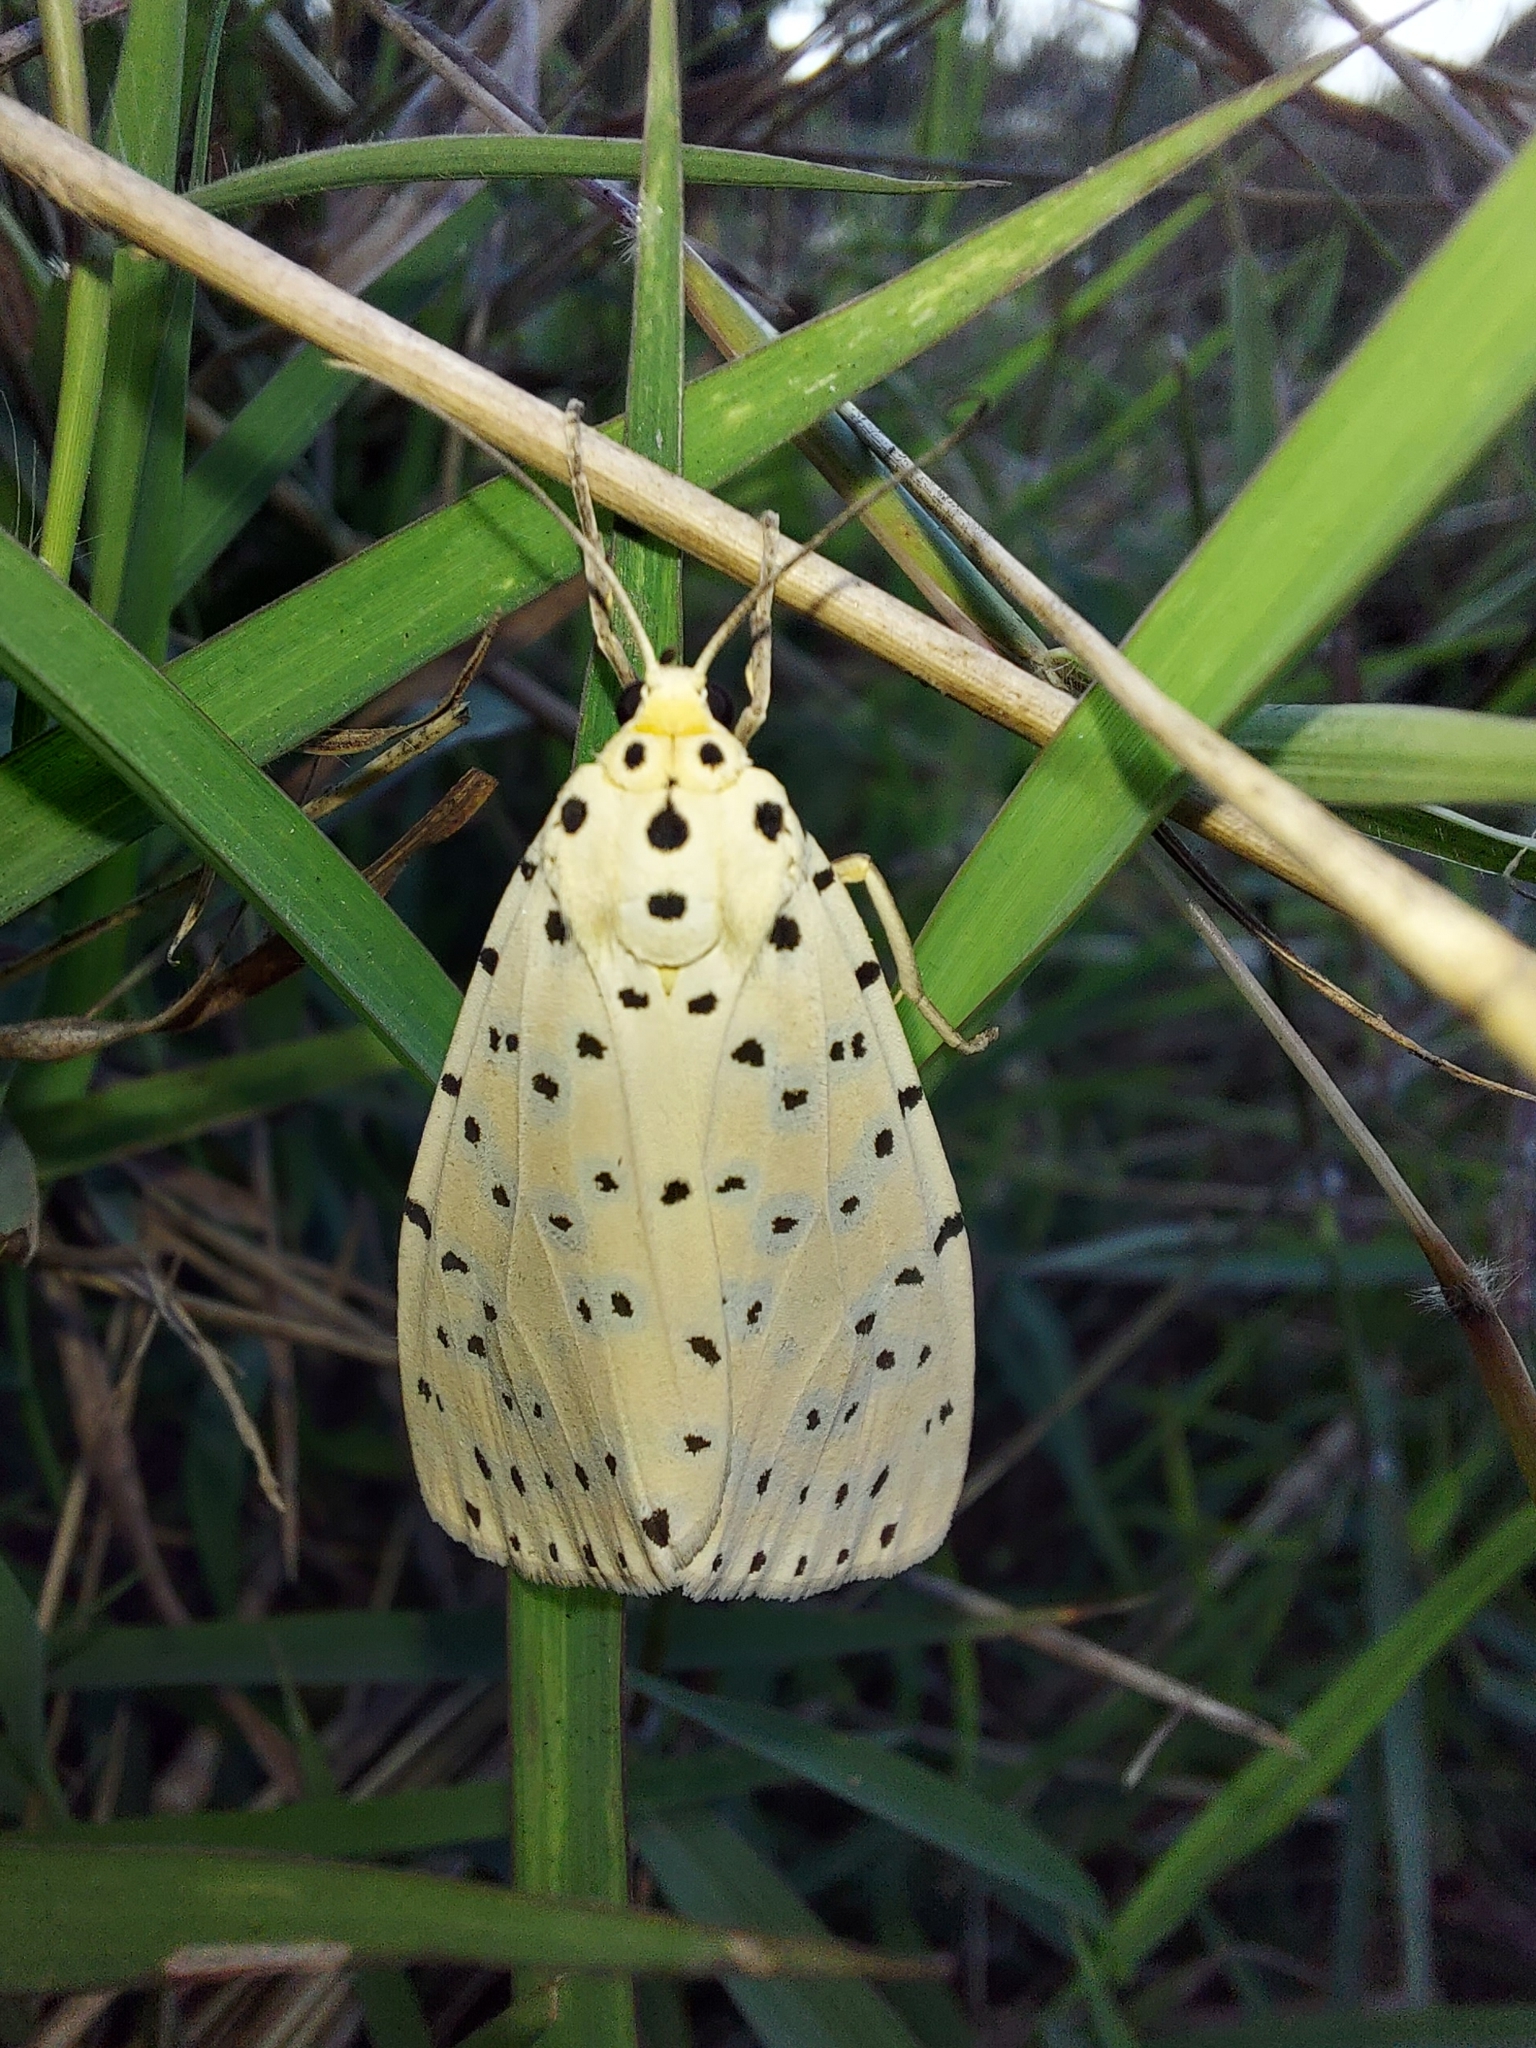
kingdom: Animalia
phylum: Arthropoda
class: Insecta
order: Lepidoptera
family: Erebidae
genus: Argina
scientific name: Argina astrea
